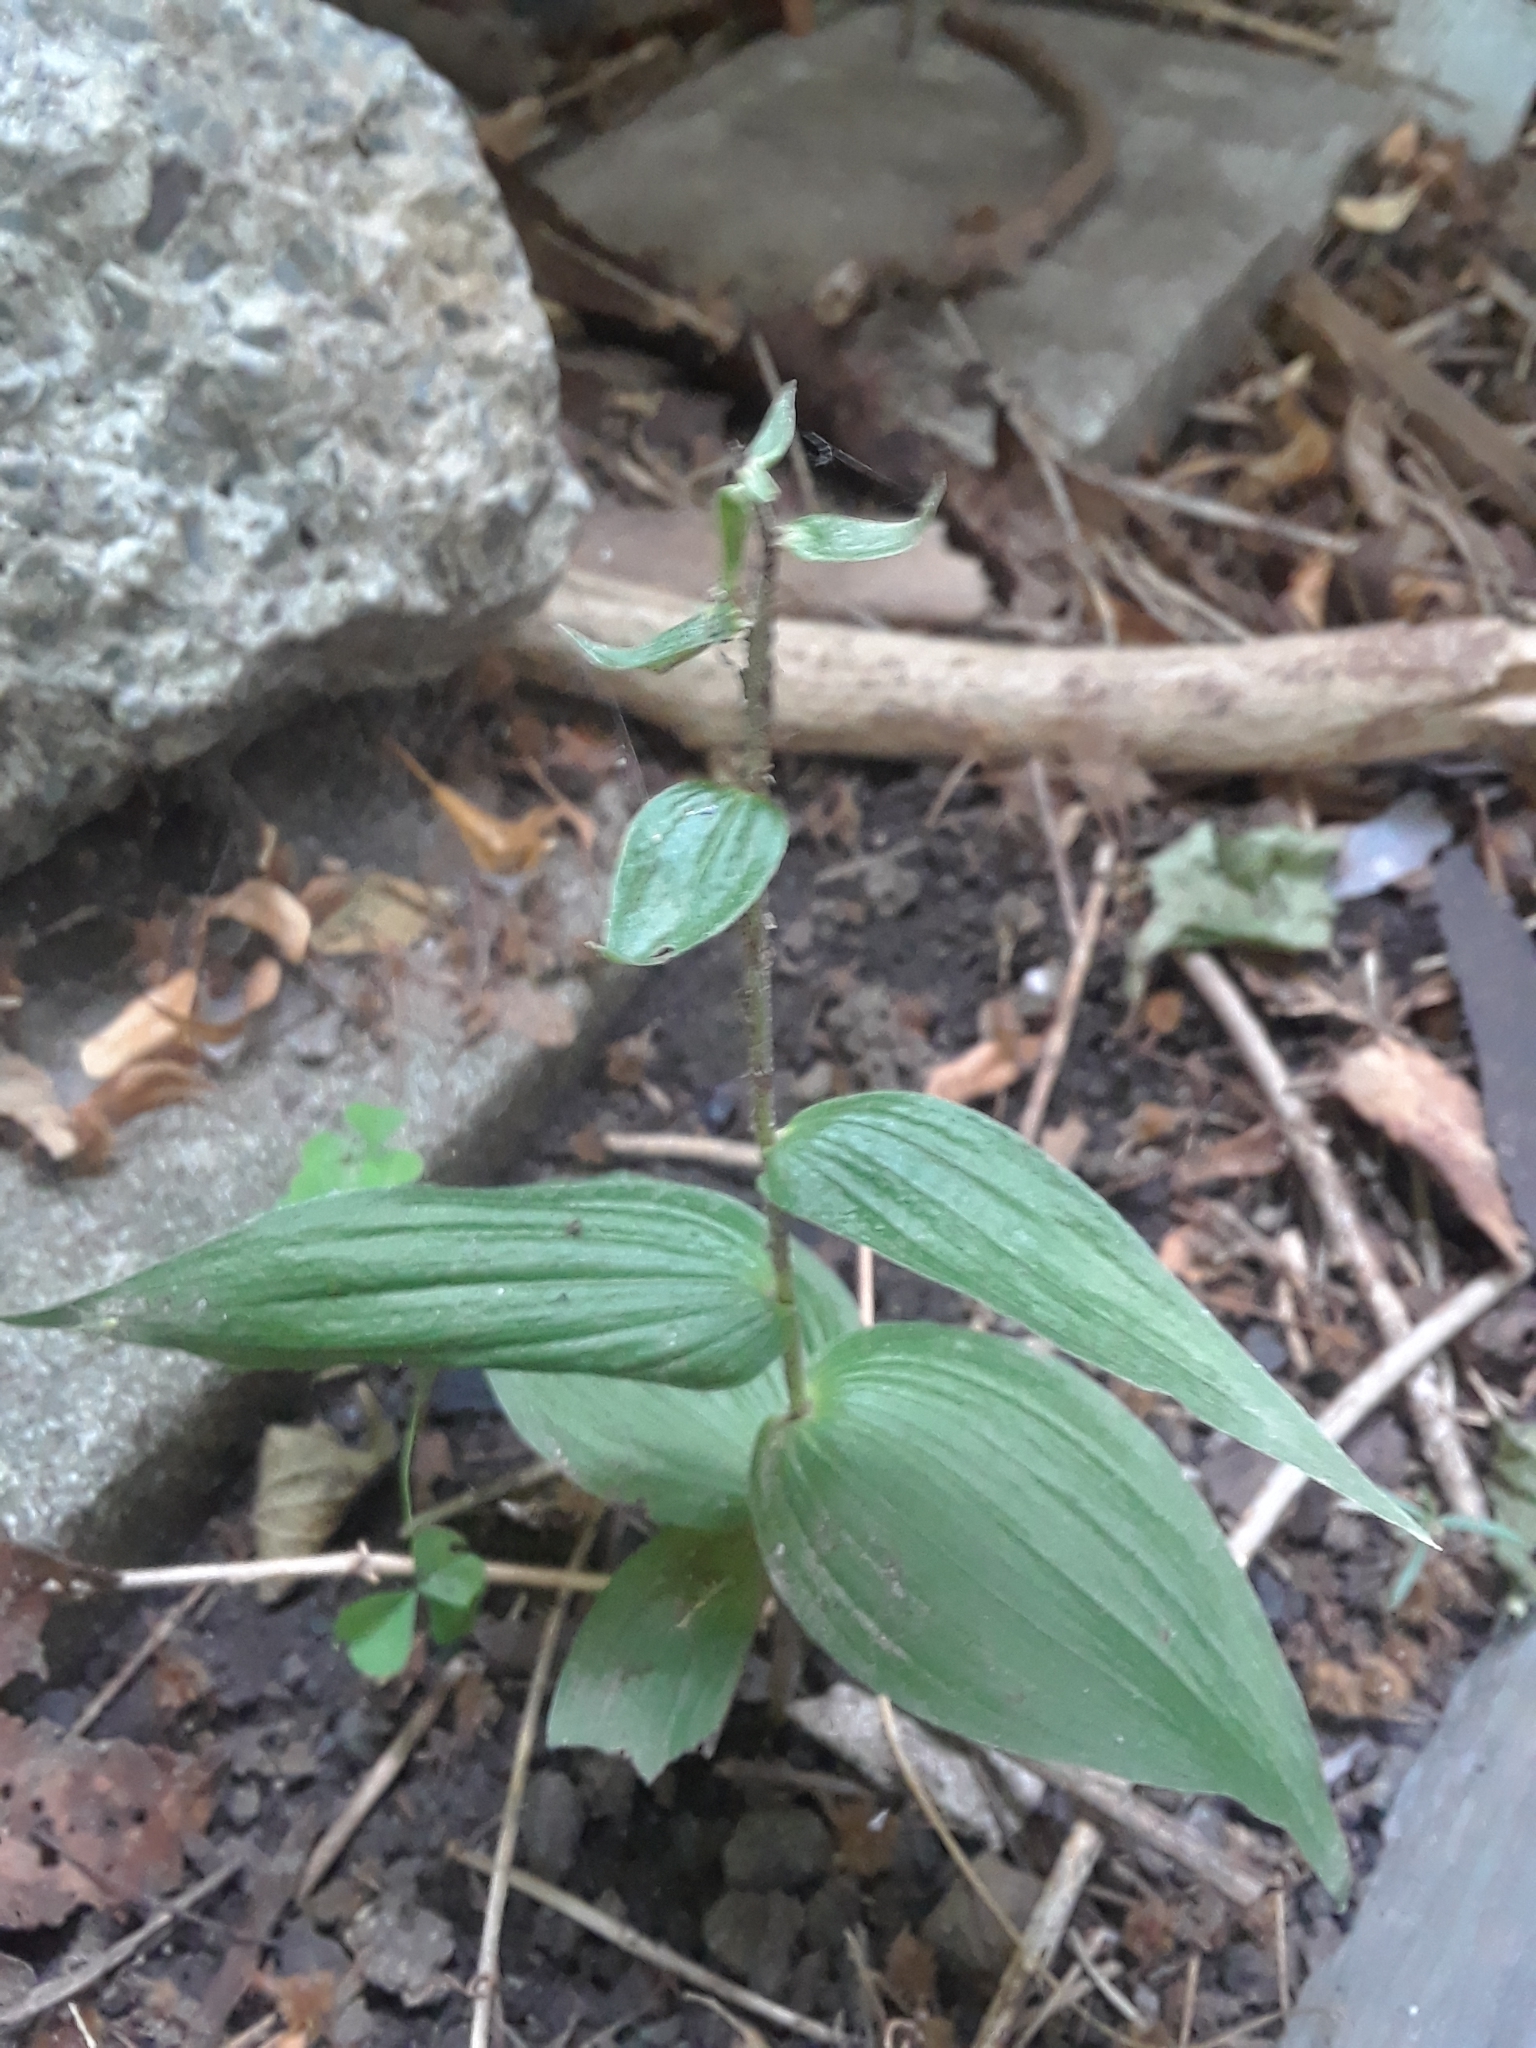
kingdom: Plantae
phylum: Tracheophyta
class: Liliopsida
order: Asparagales
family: Orchidaceae
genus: Epipactis
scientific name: Epipactis helleborine
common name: Broad-leaved helleborine
